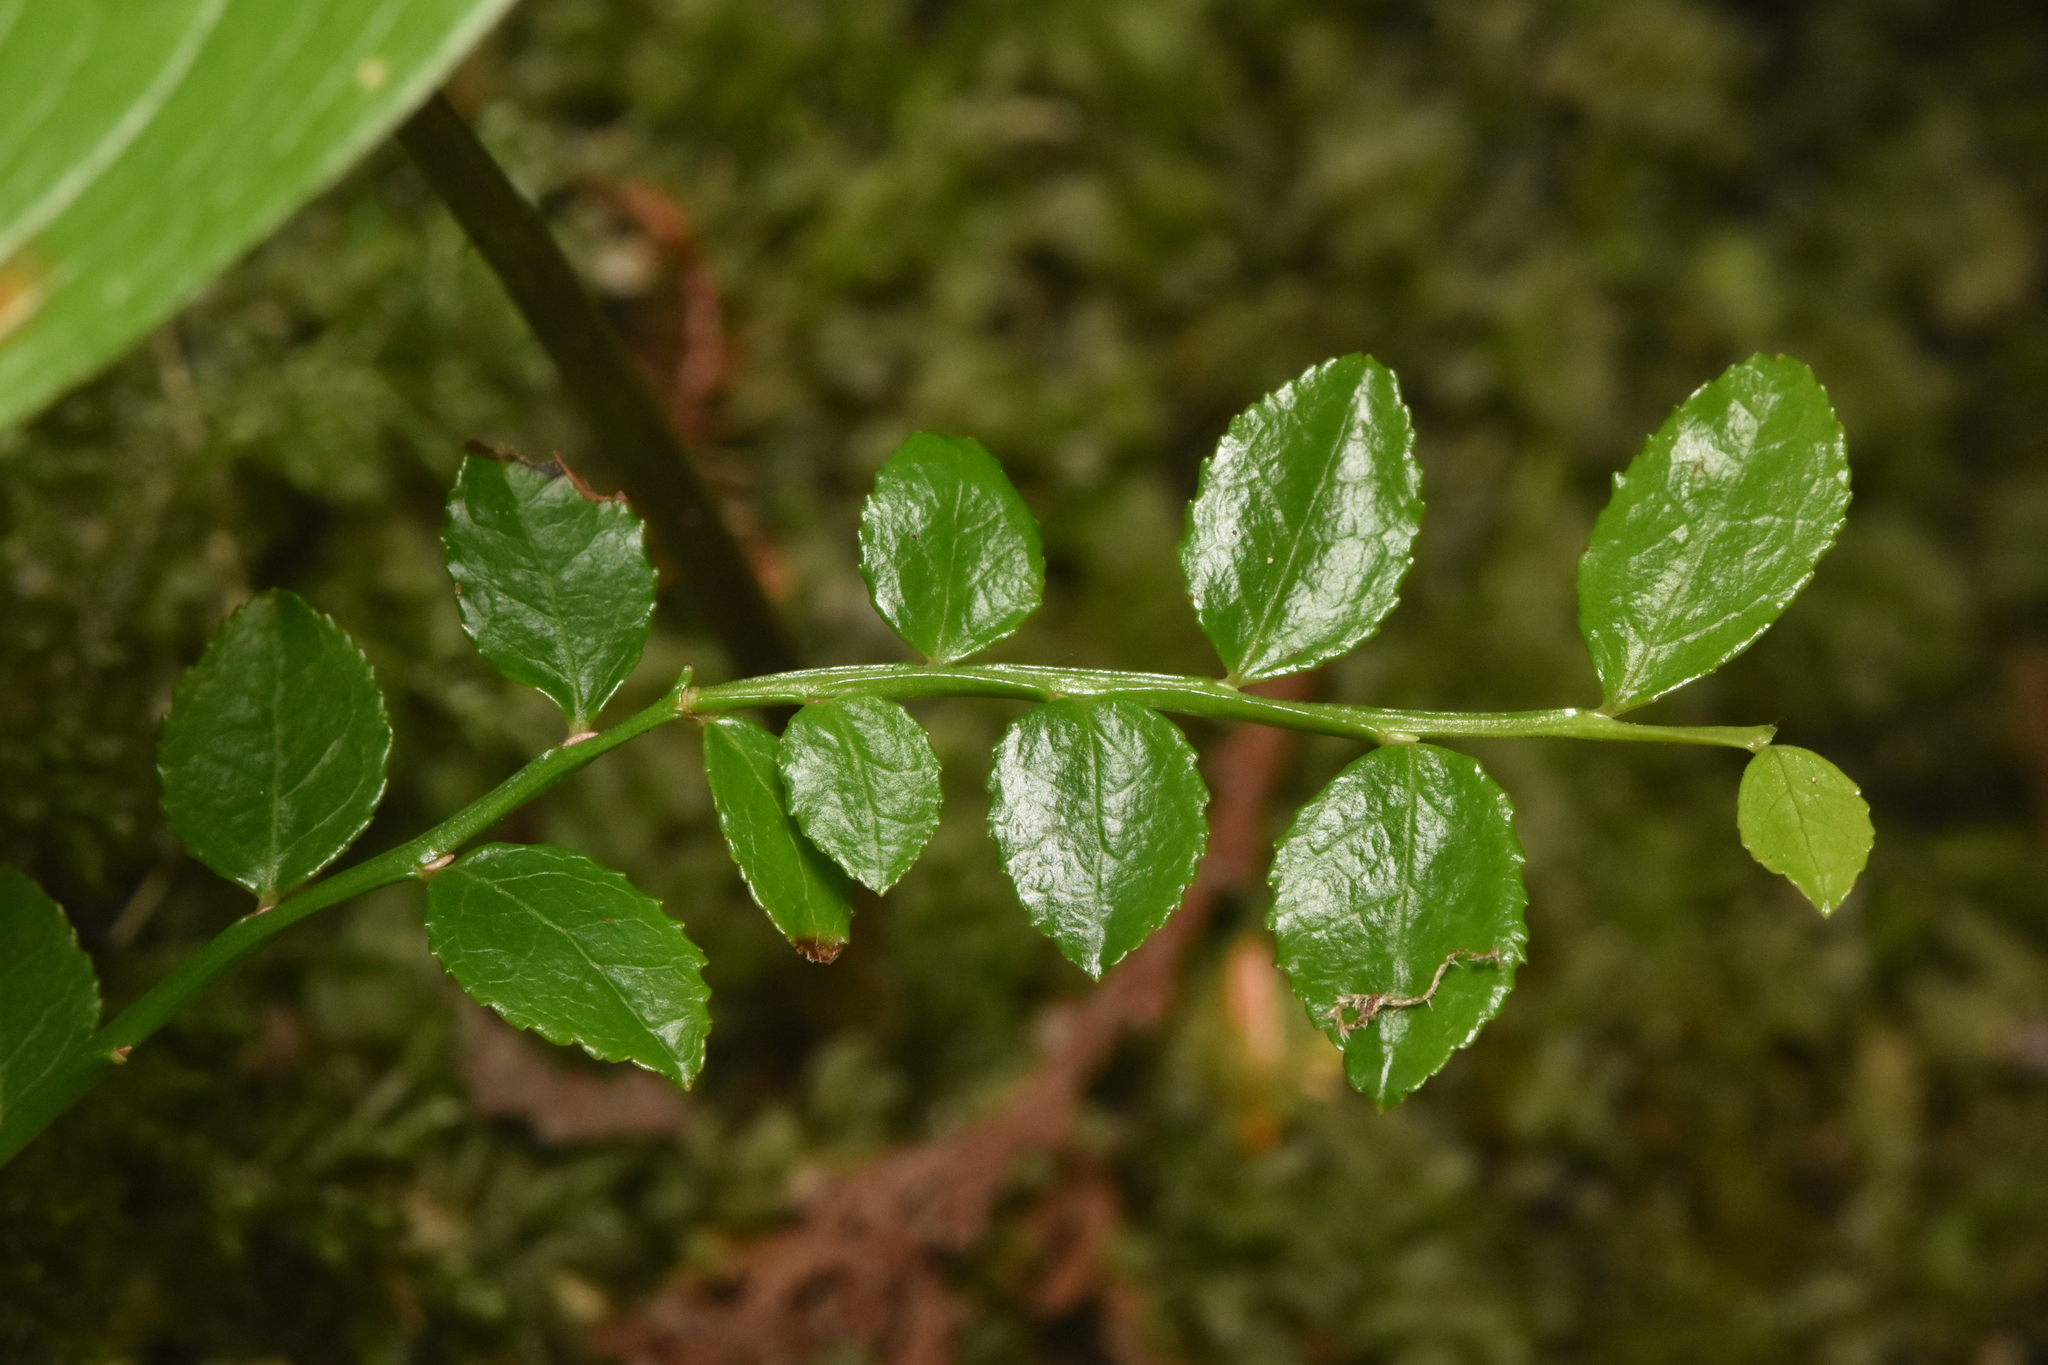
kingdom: Plantae
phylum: Tracheophyta
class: Magnoliopsida
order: Ericales
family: Ericaceae
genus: Vaccinium
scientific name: Vaccinium parvifolium
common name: Red-huckleberry
